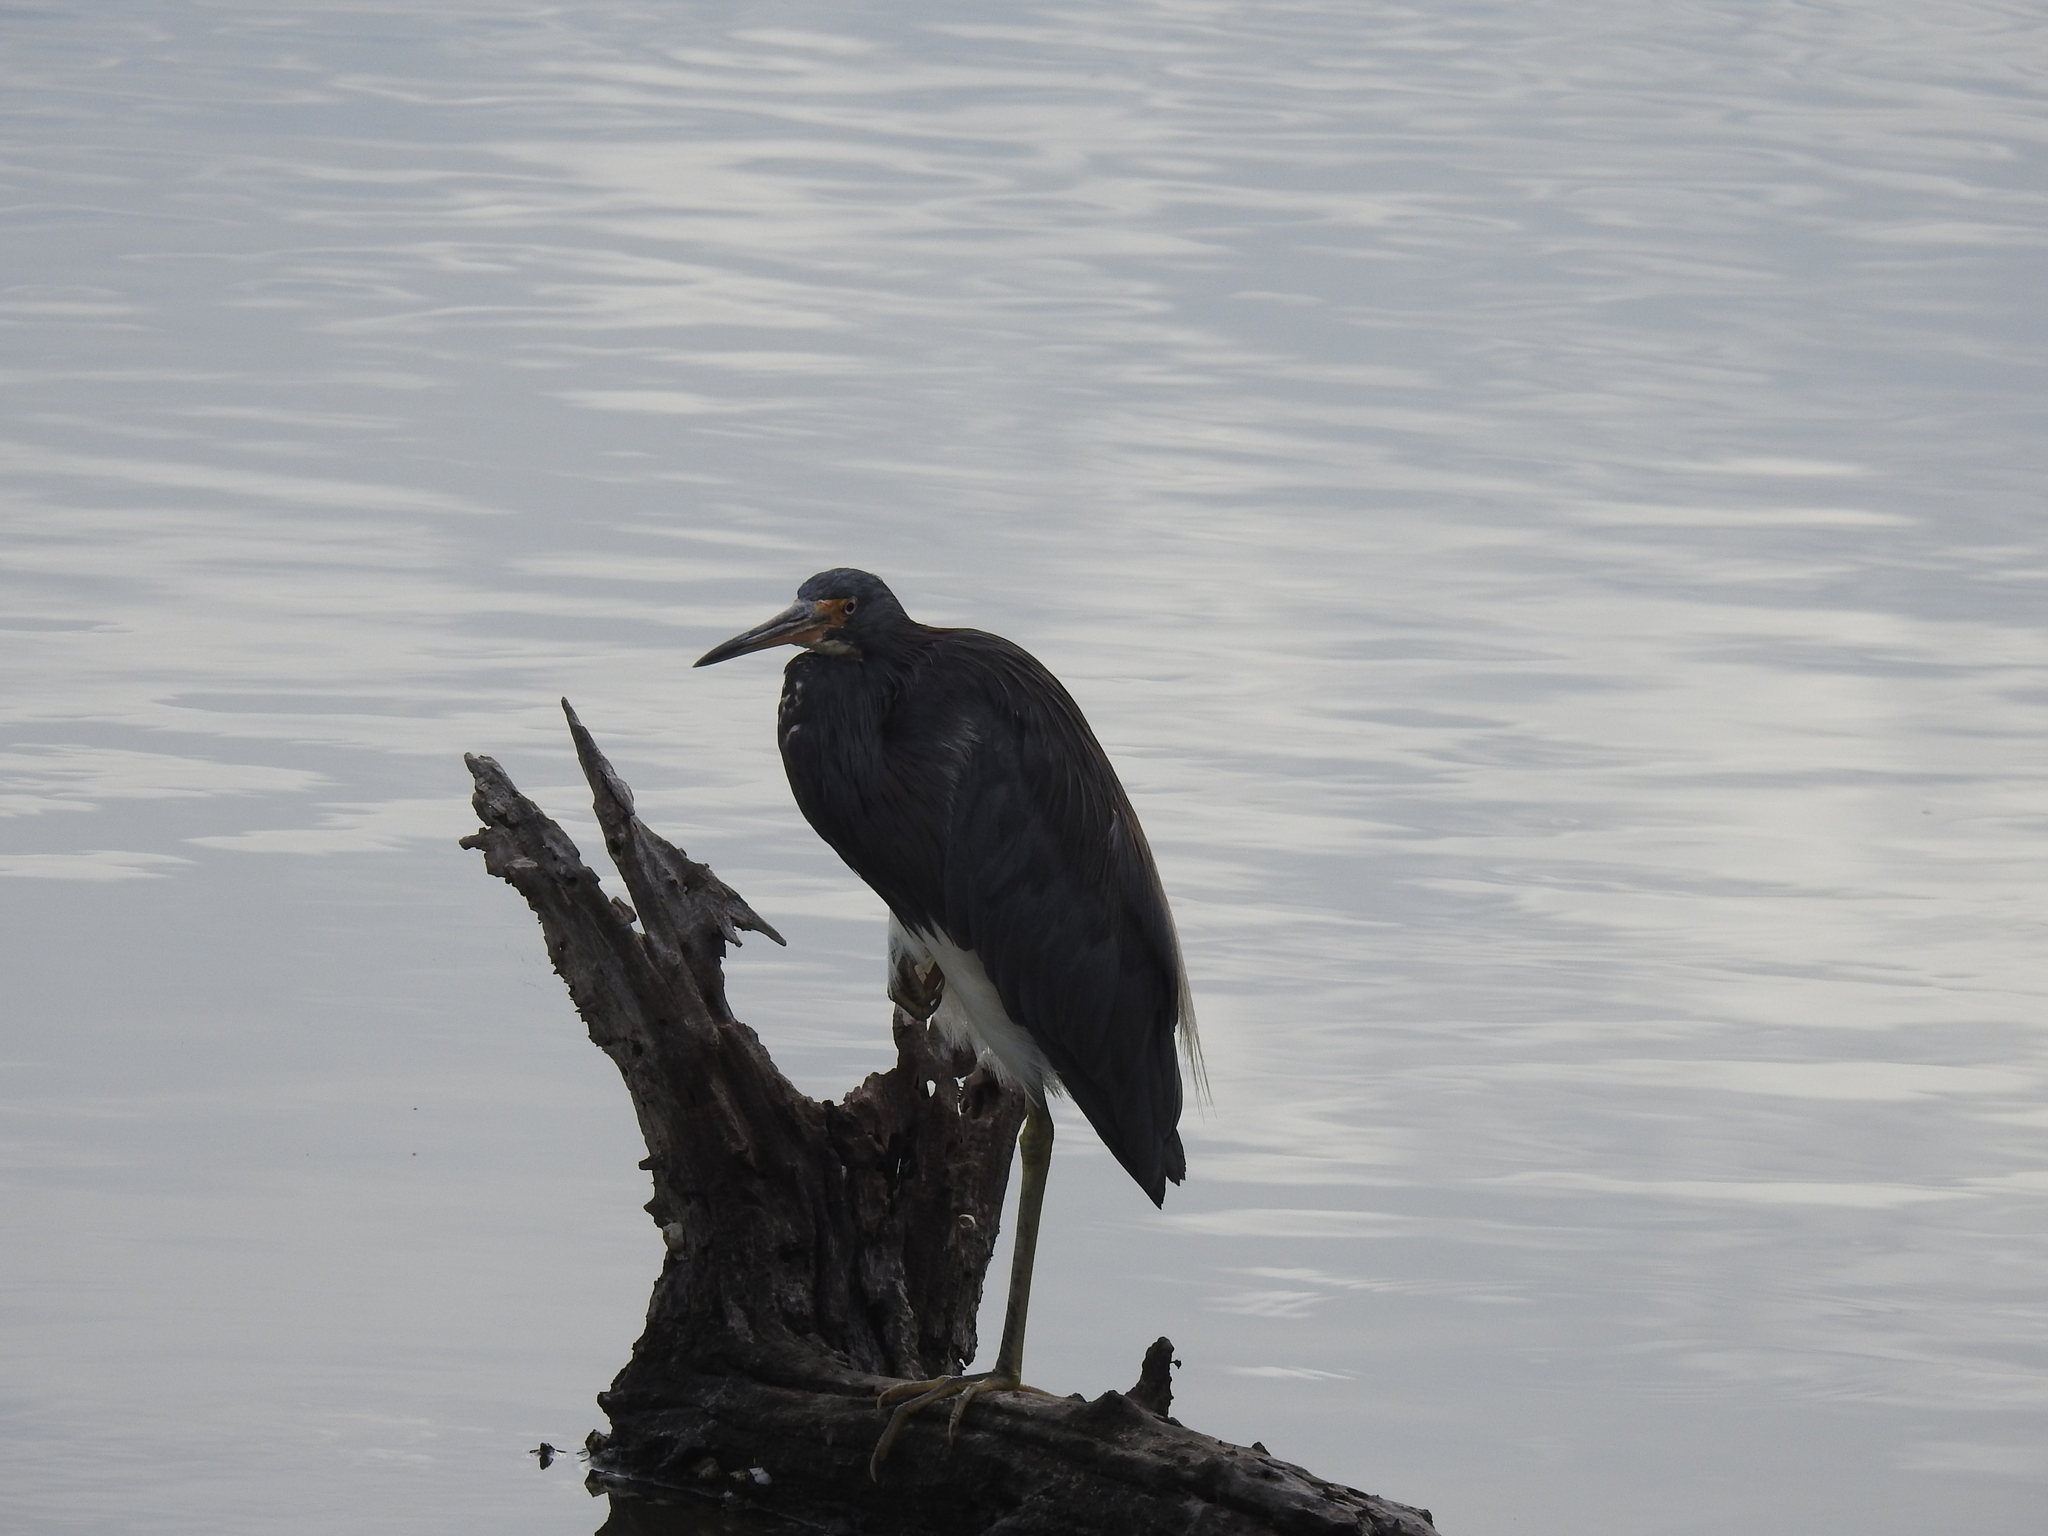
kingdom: Animalia
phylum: Chordata
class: Aves
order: Pelecaniformes
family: Ardeidae
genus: Egretta
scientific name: Egretta tricolor
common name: Tricolored heron
